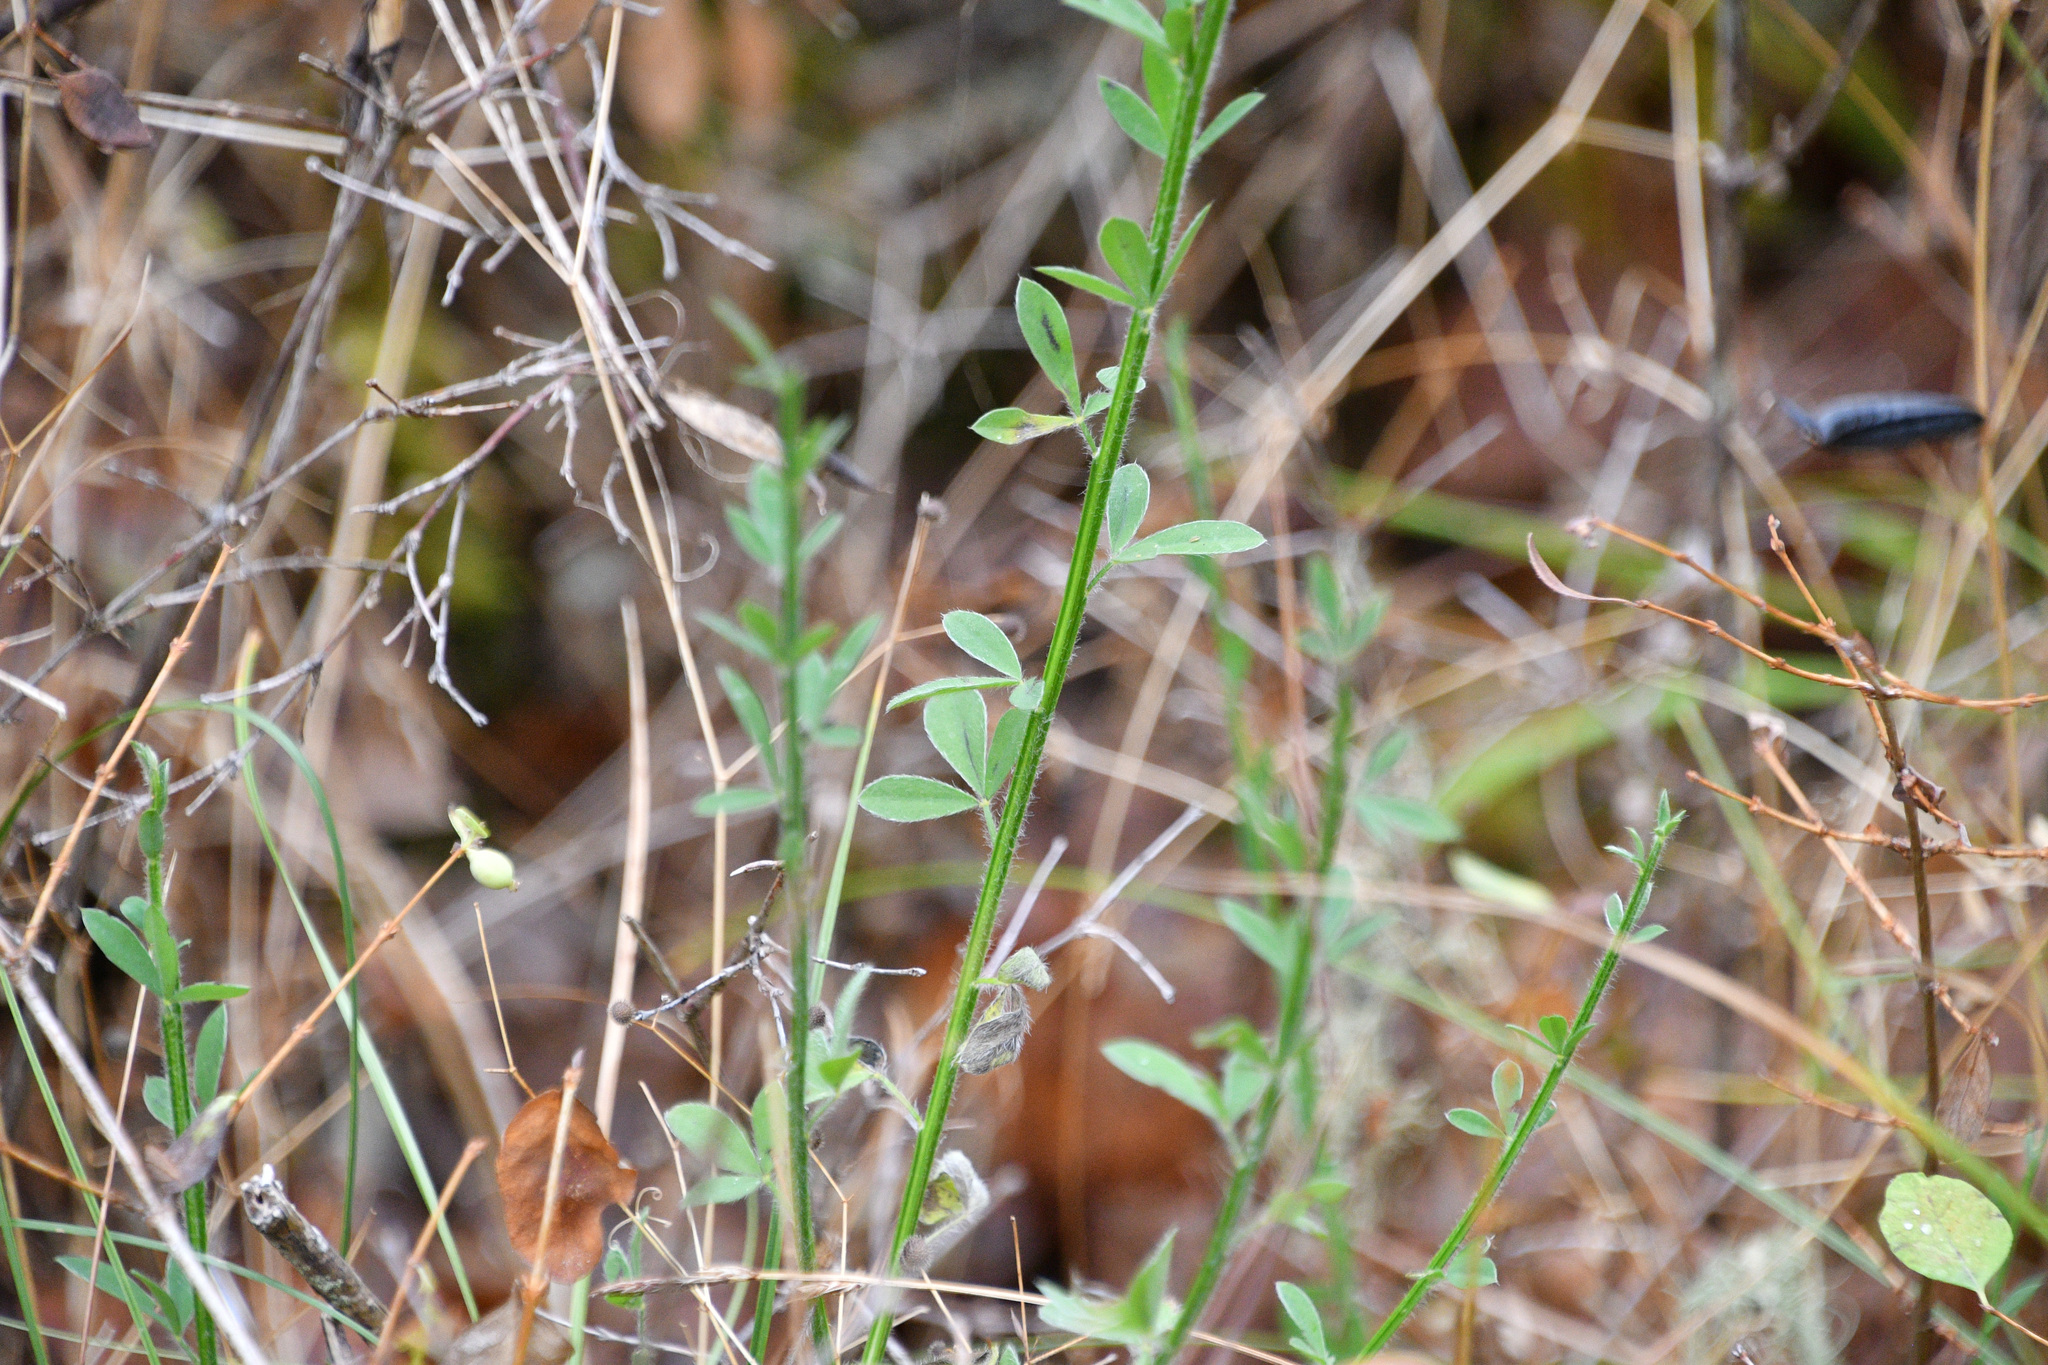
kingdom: Plantae
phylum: Tracheophyta
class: Magnoliopsida
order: Fabales
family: Fabaceae
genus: Cytisus
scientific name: Cytisus scoparius
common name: Scotch broom
